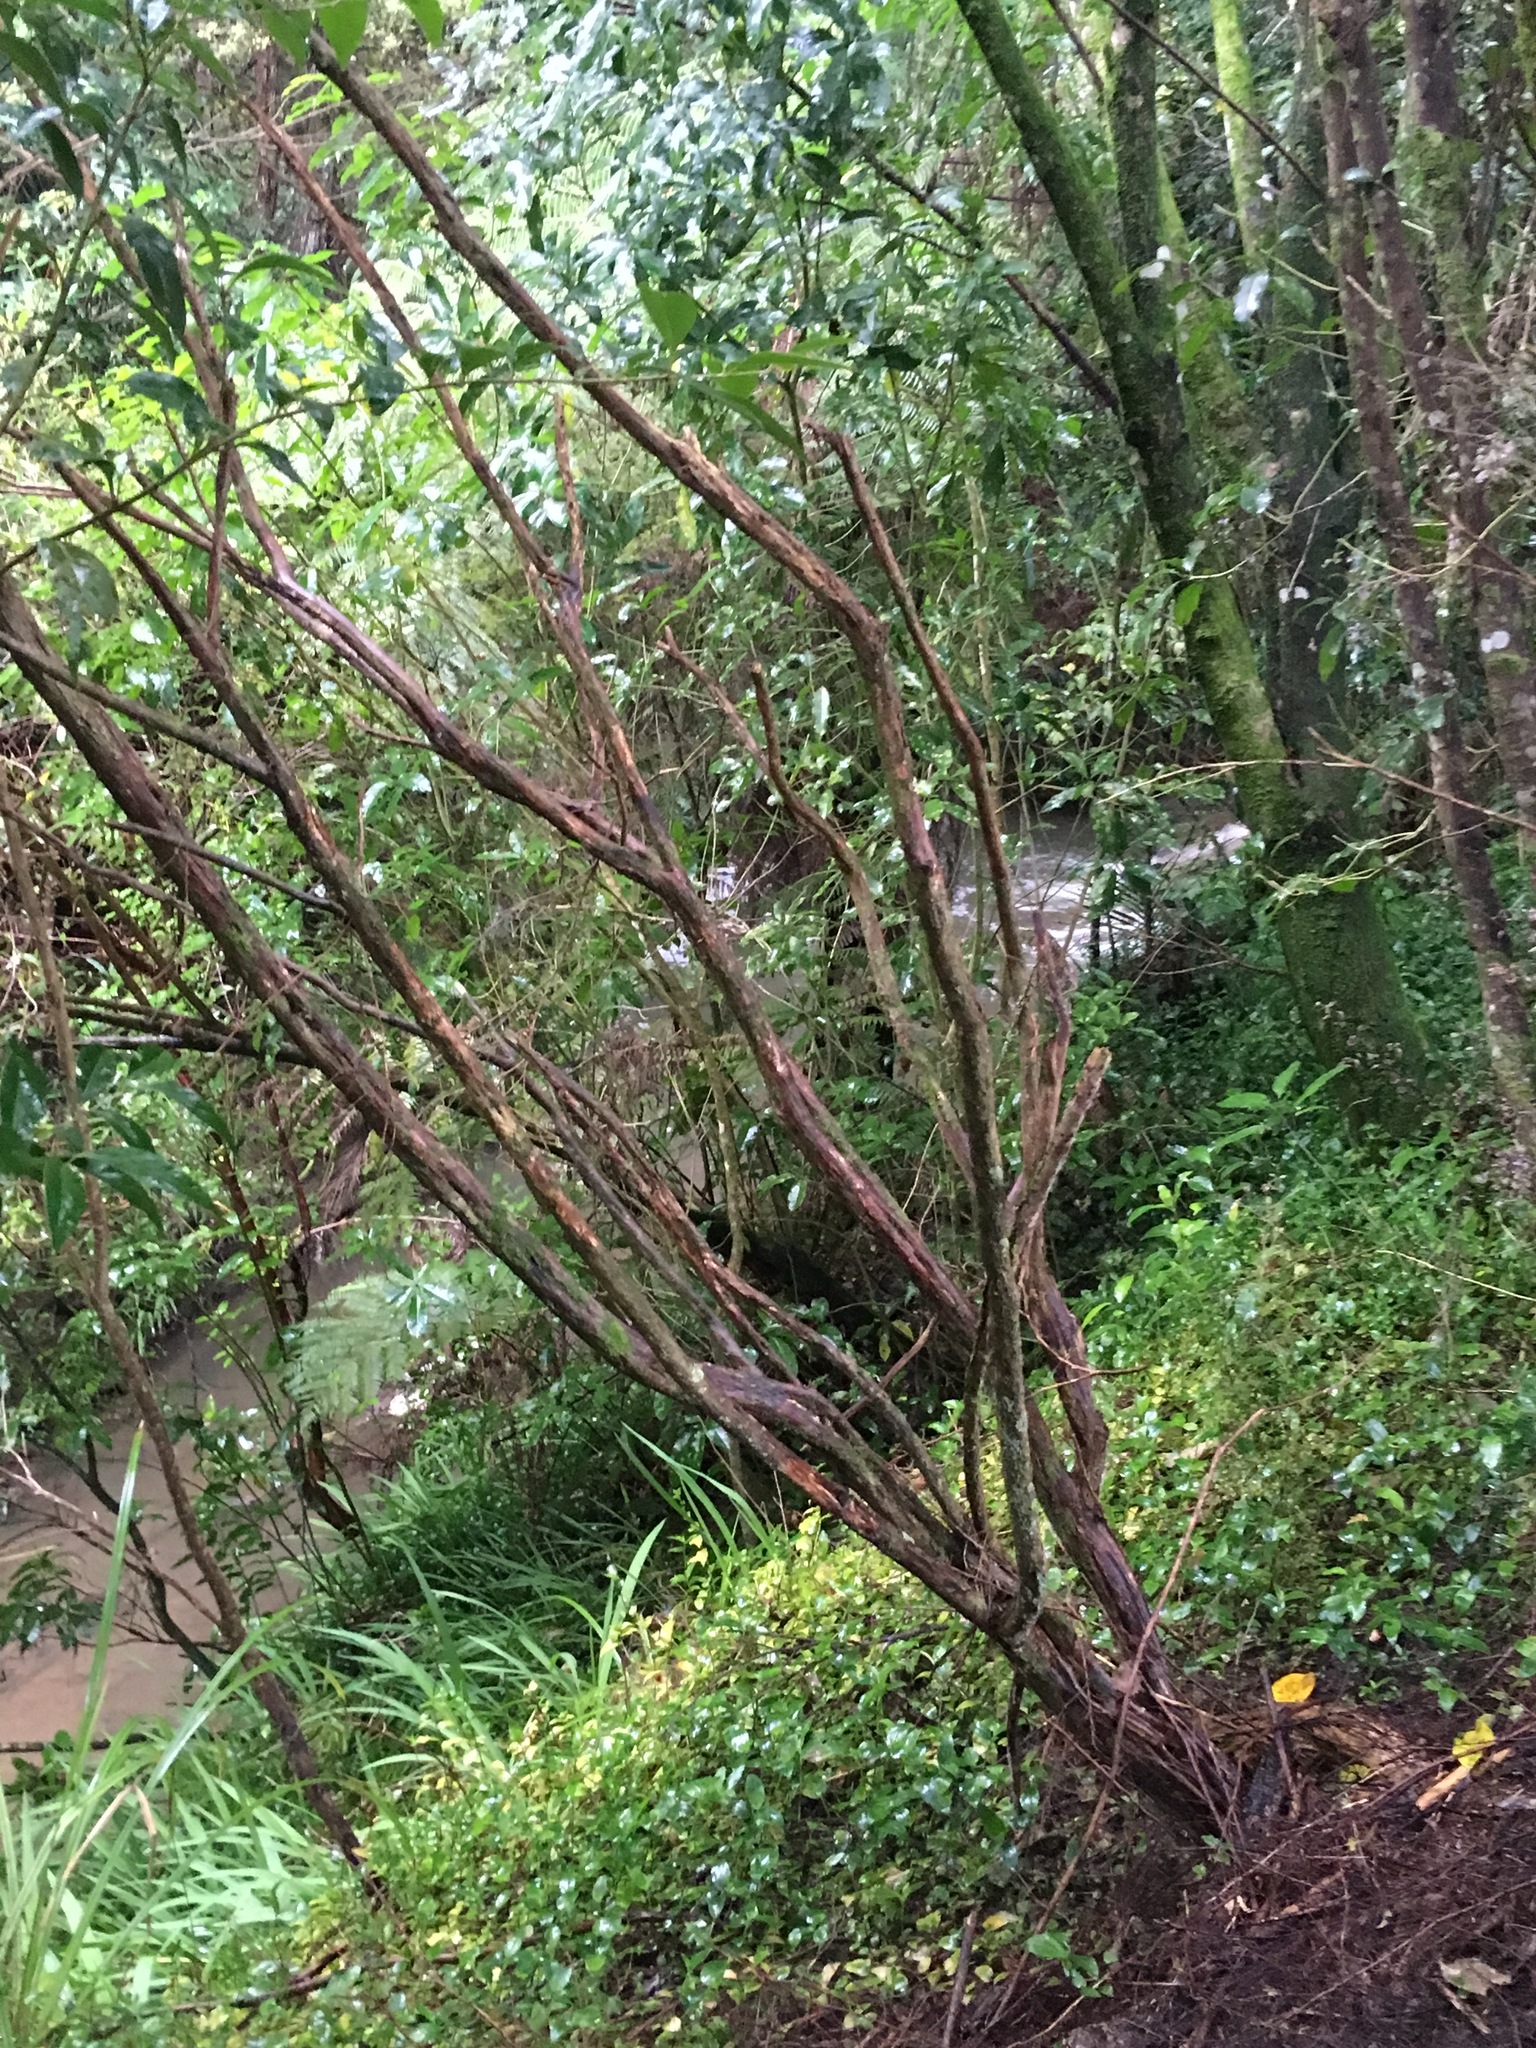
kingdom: Plantae
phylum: Tracheophyta
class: Liliopsida
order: Commelinales
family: Commelinaceae
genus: Tradescantia
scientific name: Tradescantia fluminensis
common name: Wandering-jew
